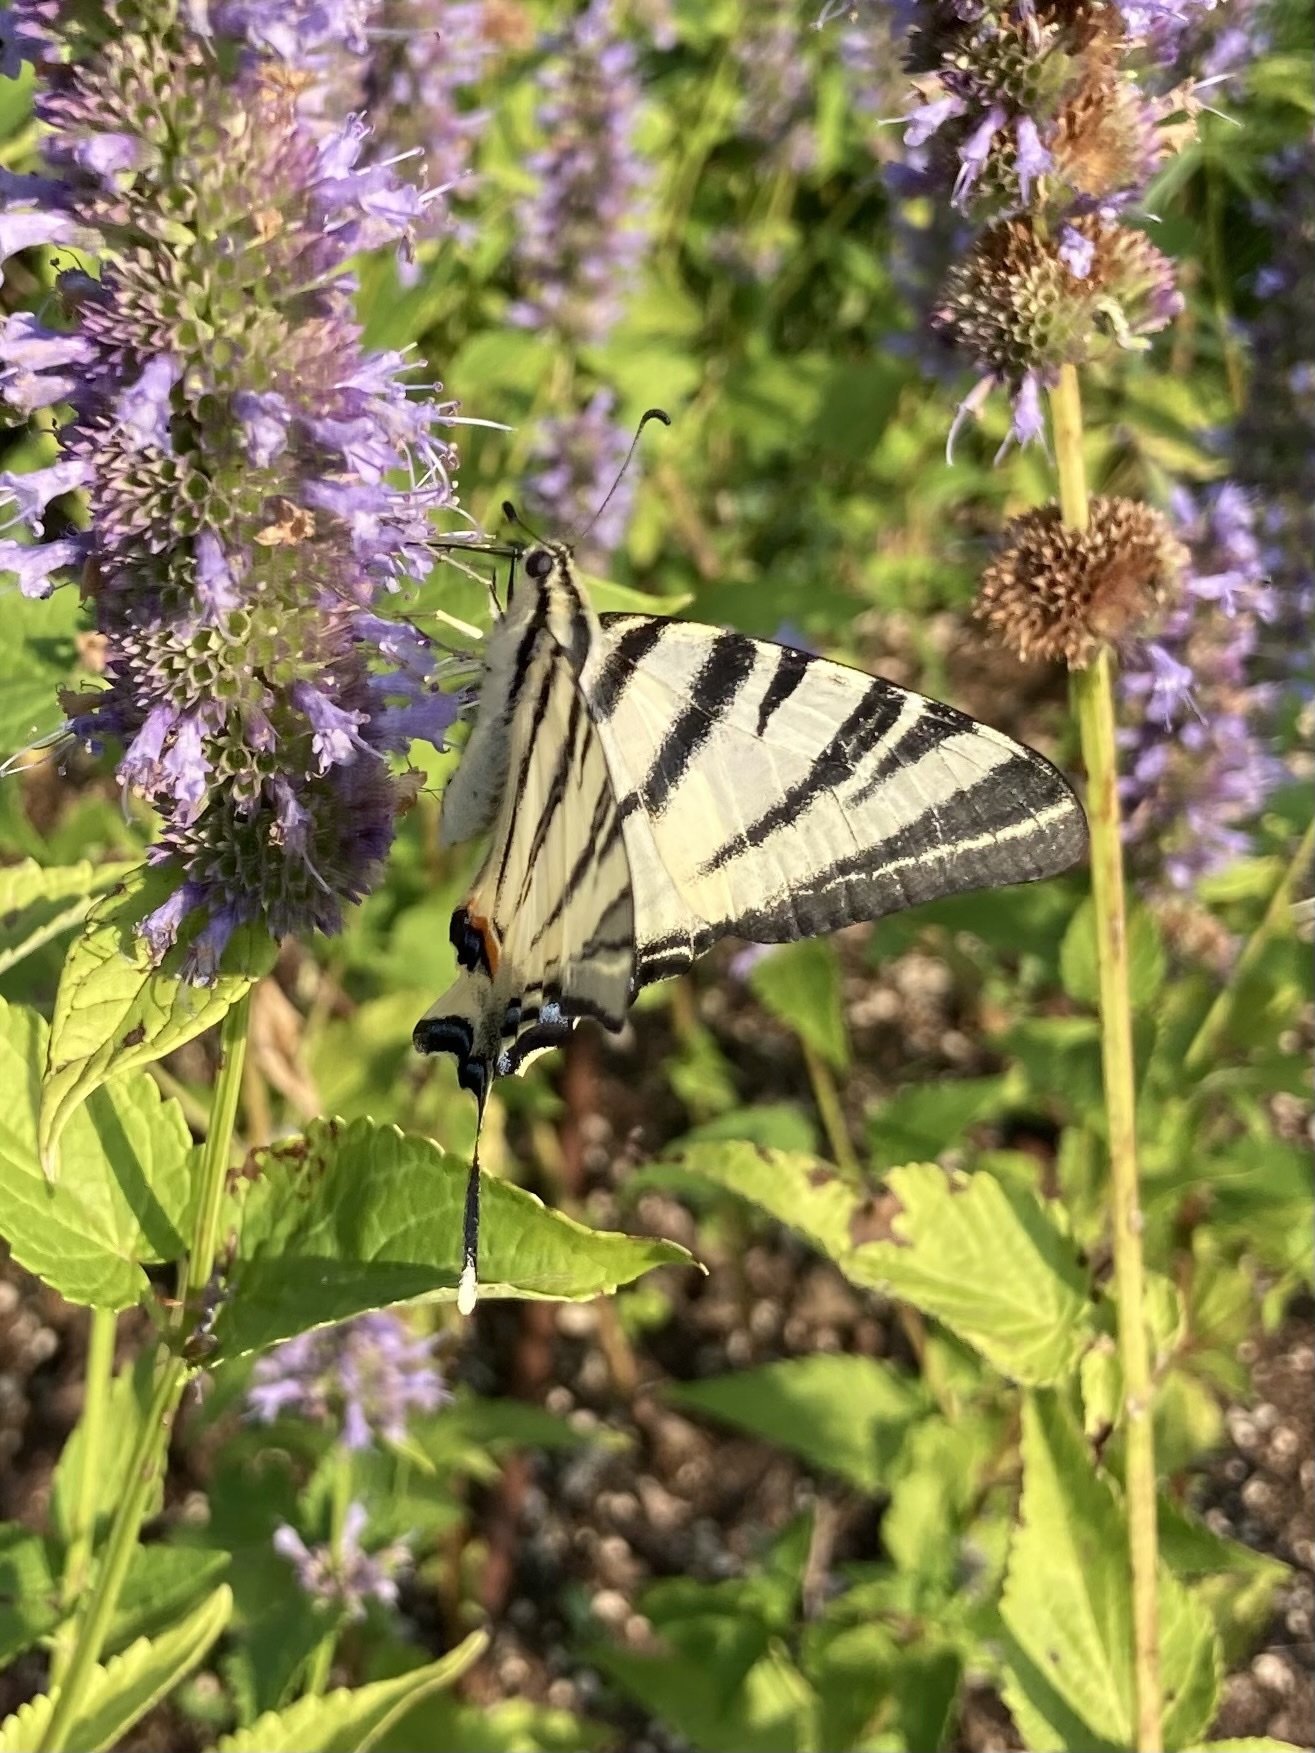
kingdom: Animalia
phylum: Arthropoda
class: Insecta
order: Lepidoptera
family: Papilionidae
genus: Iphiclides
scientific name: Iphiclides podalirius
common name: Scarce swallowtail
